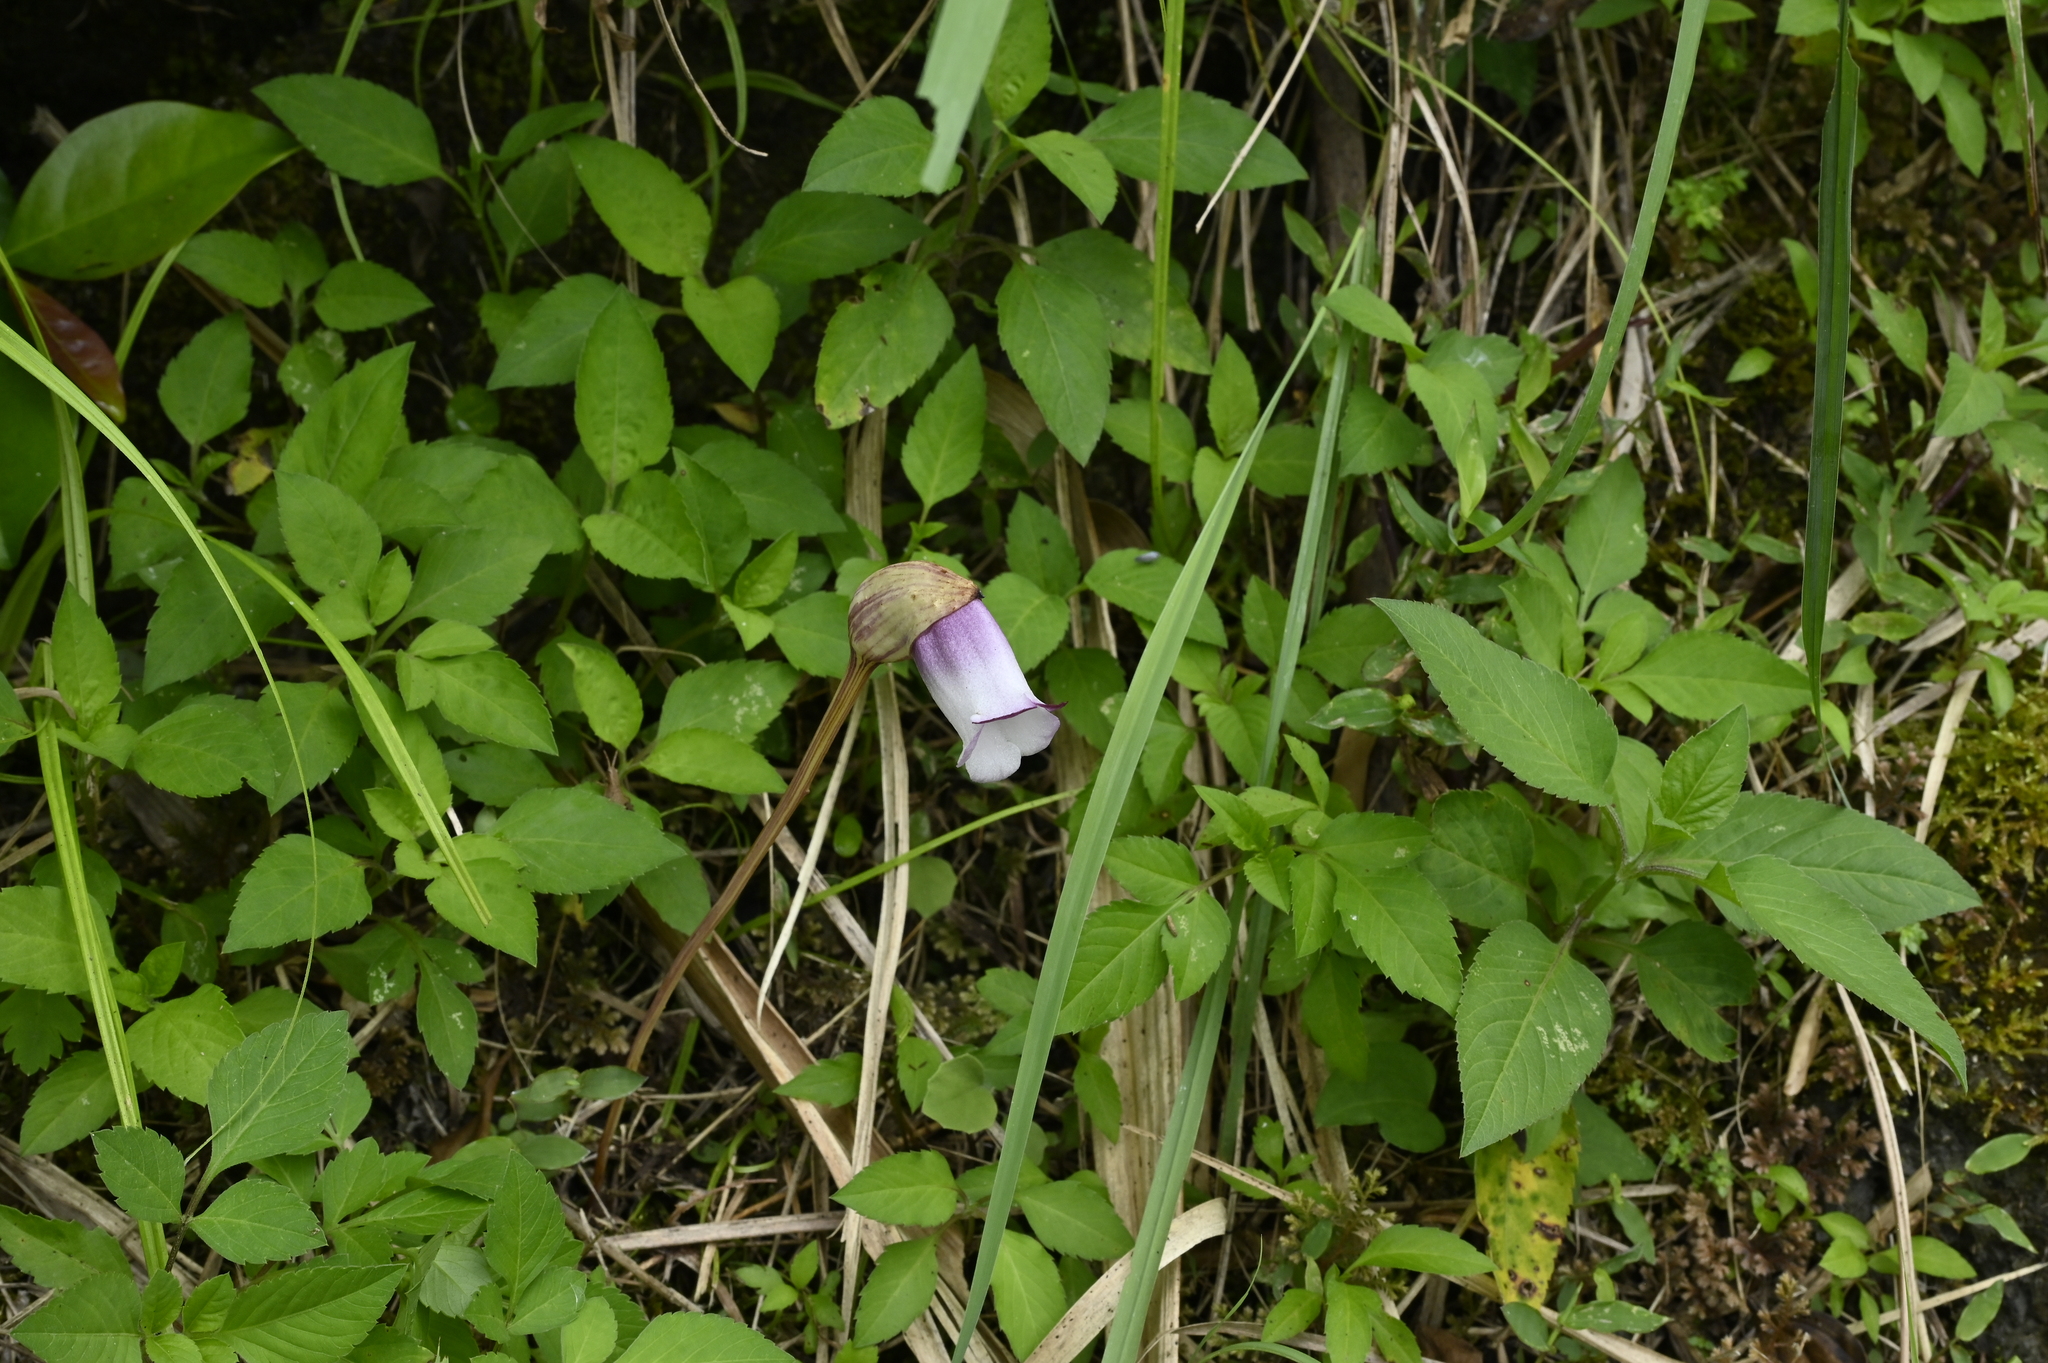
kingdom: Plantae
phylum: Tracheophyta
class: Magnoliopsida
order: Lamiales
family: Orobanchaceae
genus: Aeginetia
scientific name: Aeginetia indica
